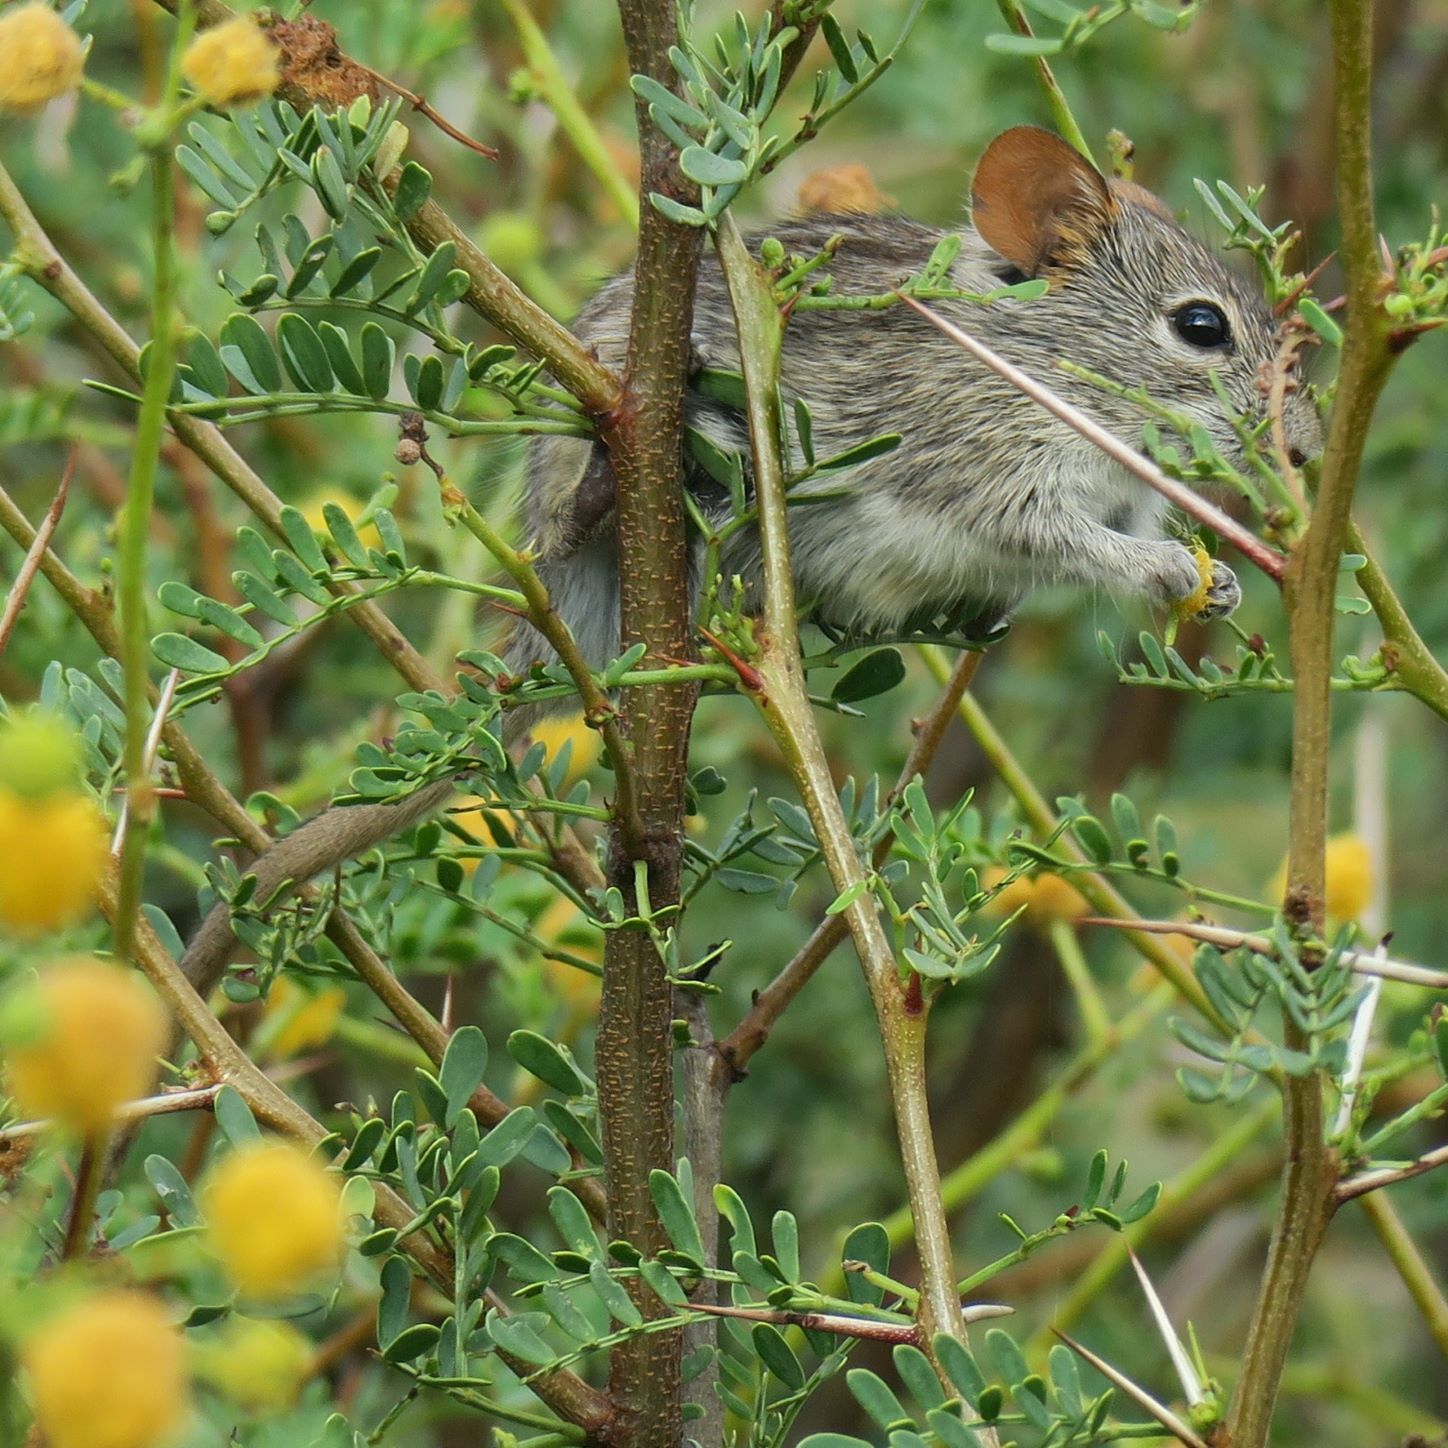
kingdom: Animalia
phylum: Chordata
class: Mammalia
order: Rodentia
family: Muridae
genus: Rhabdomys
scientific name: Rhabdomys pumilio
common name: Xeric four-striped grass rat
